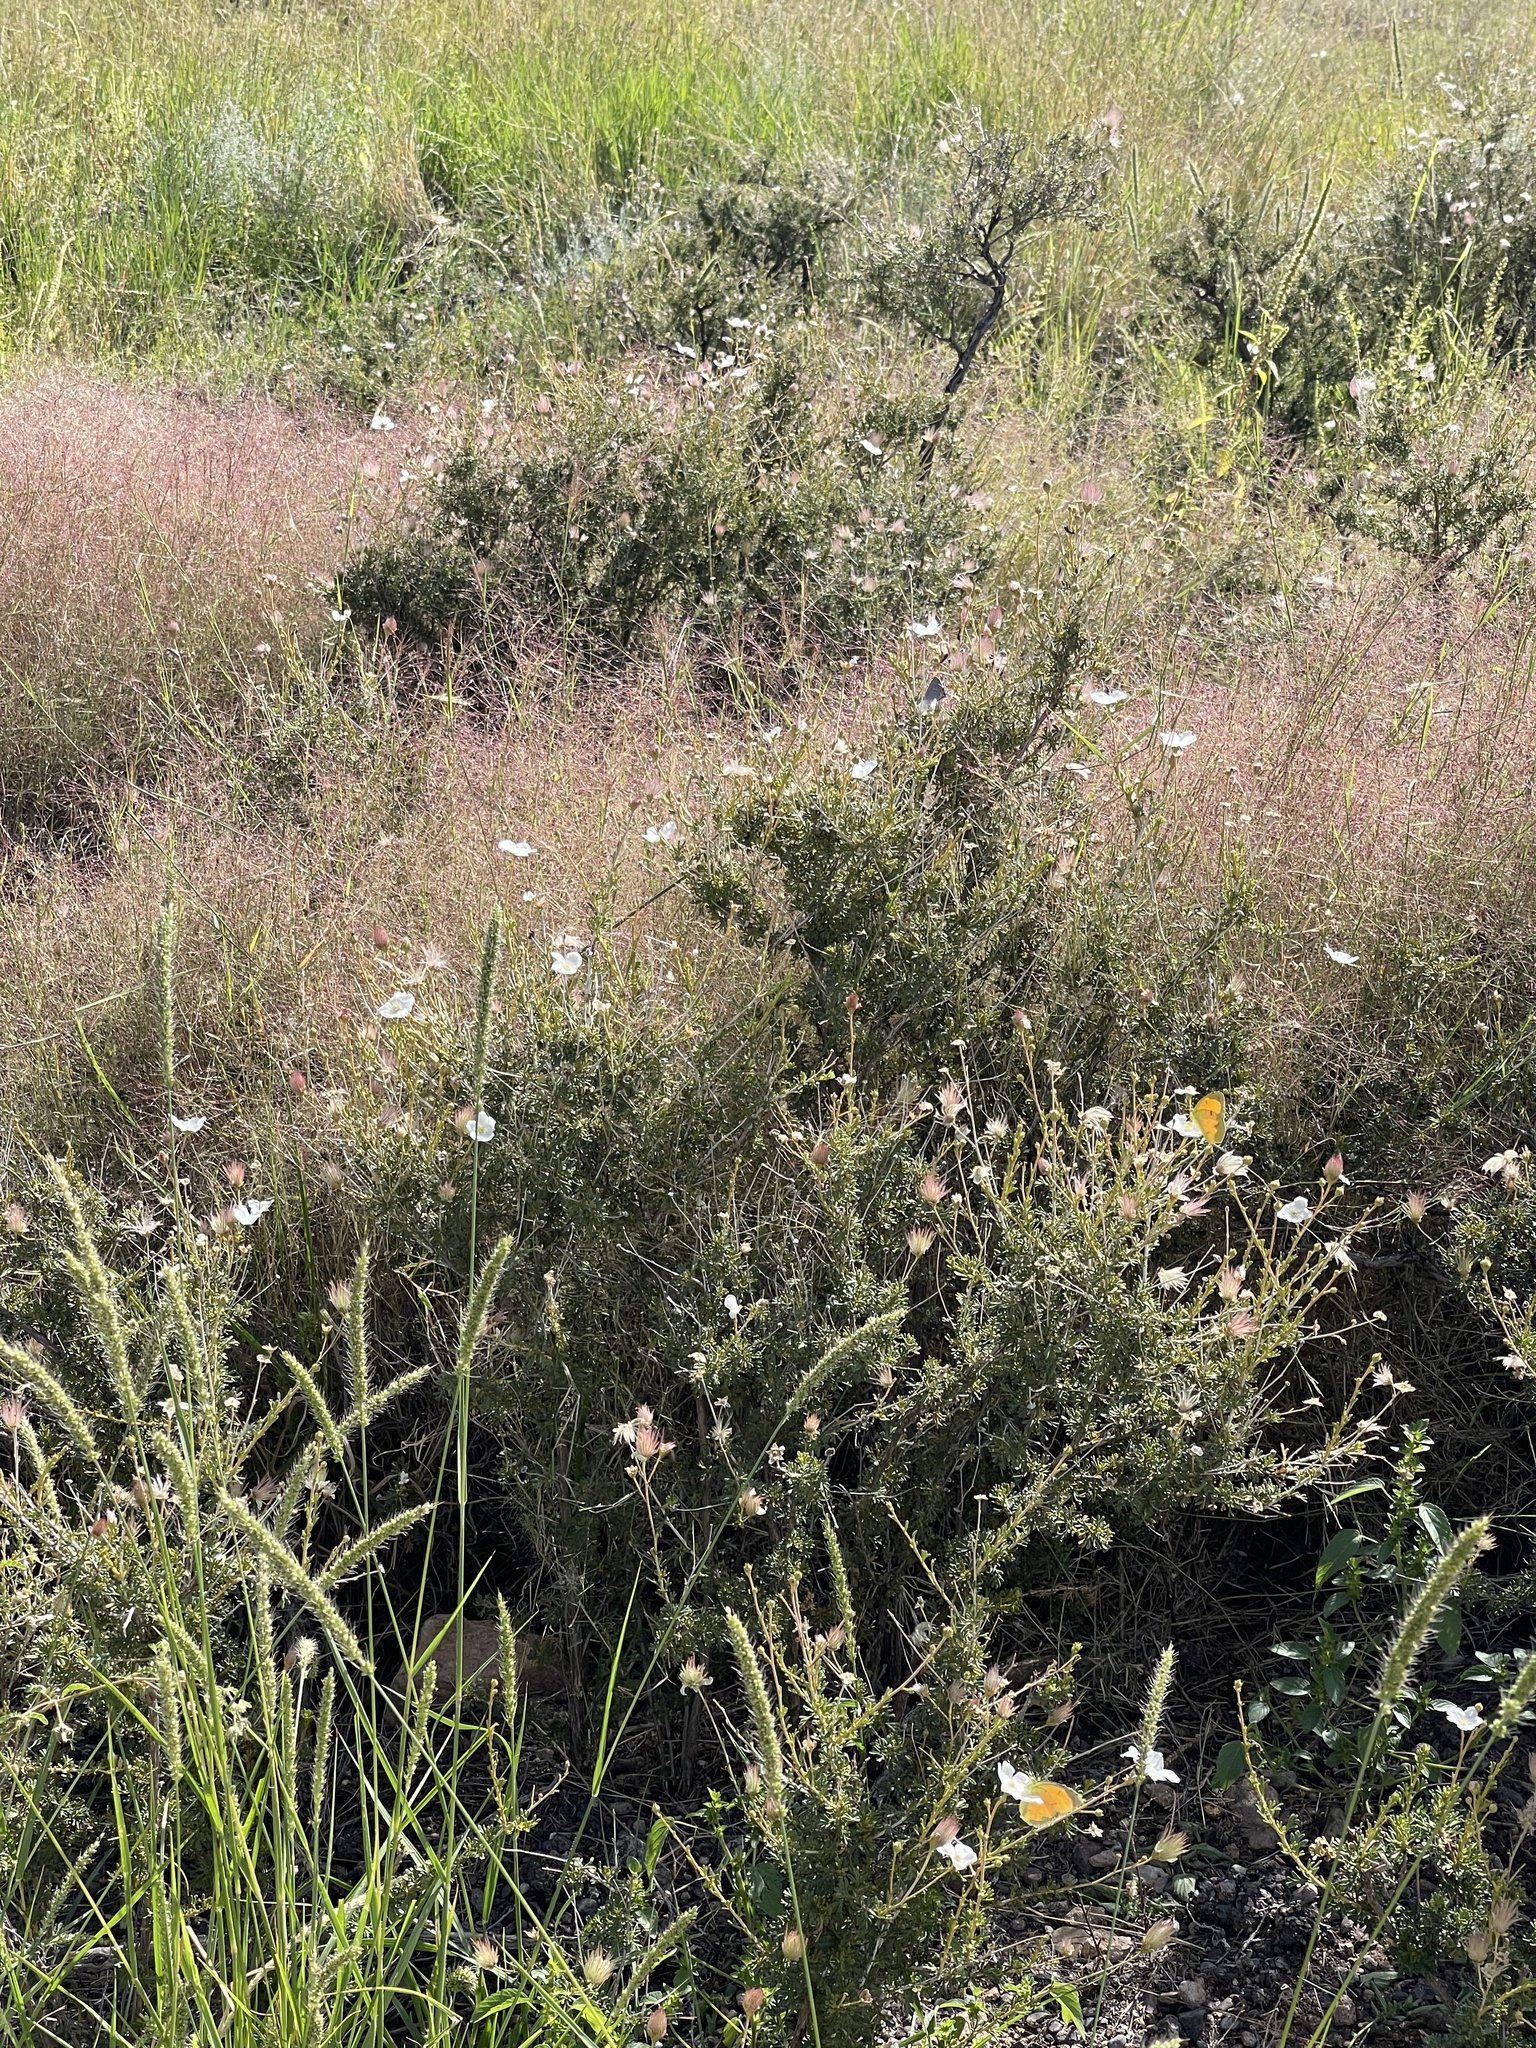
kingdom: Plantae
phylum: Tracheophyta
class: Magnoliopsida
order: Rosales
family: Rosaceae
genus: Fallugia
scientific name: Fallugia paradoxa
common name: Apache-plume
